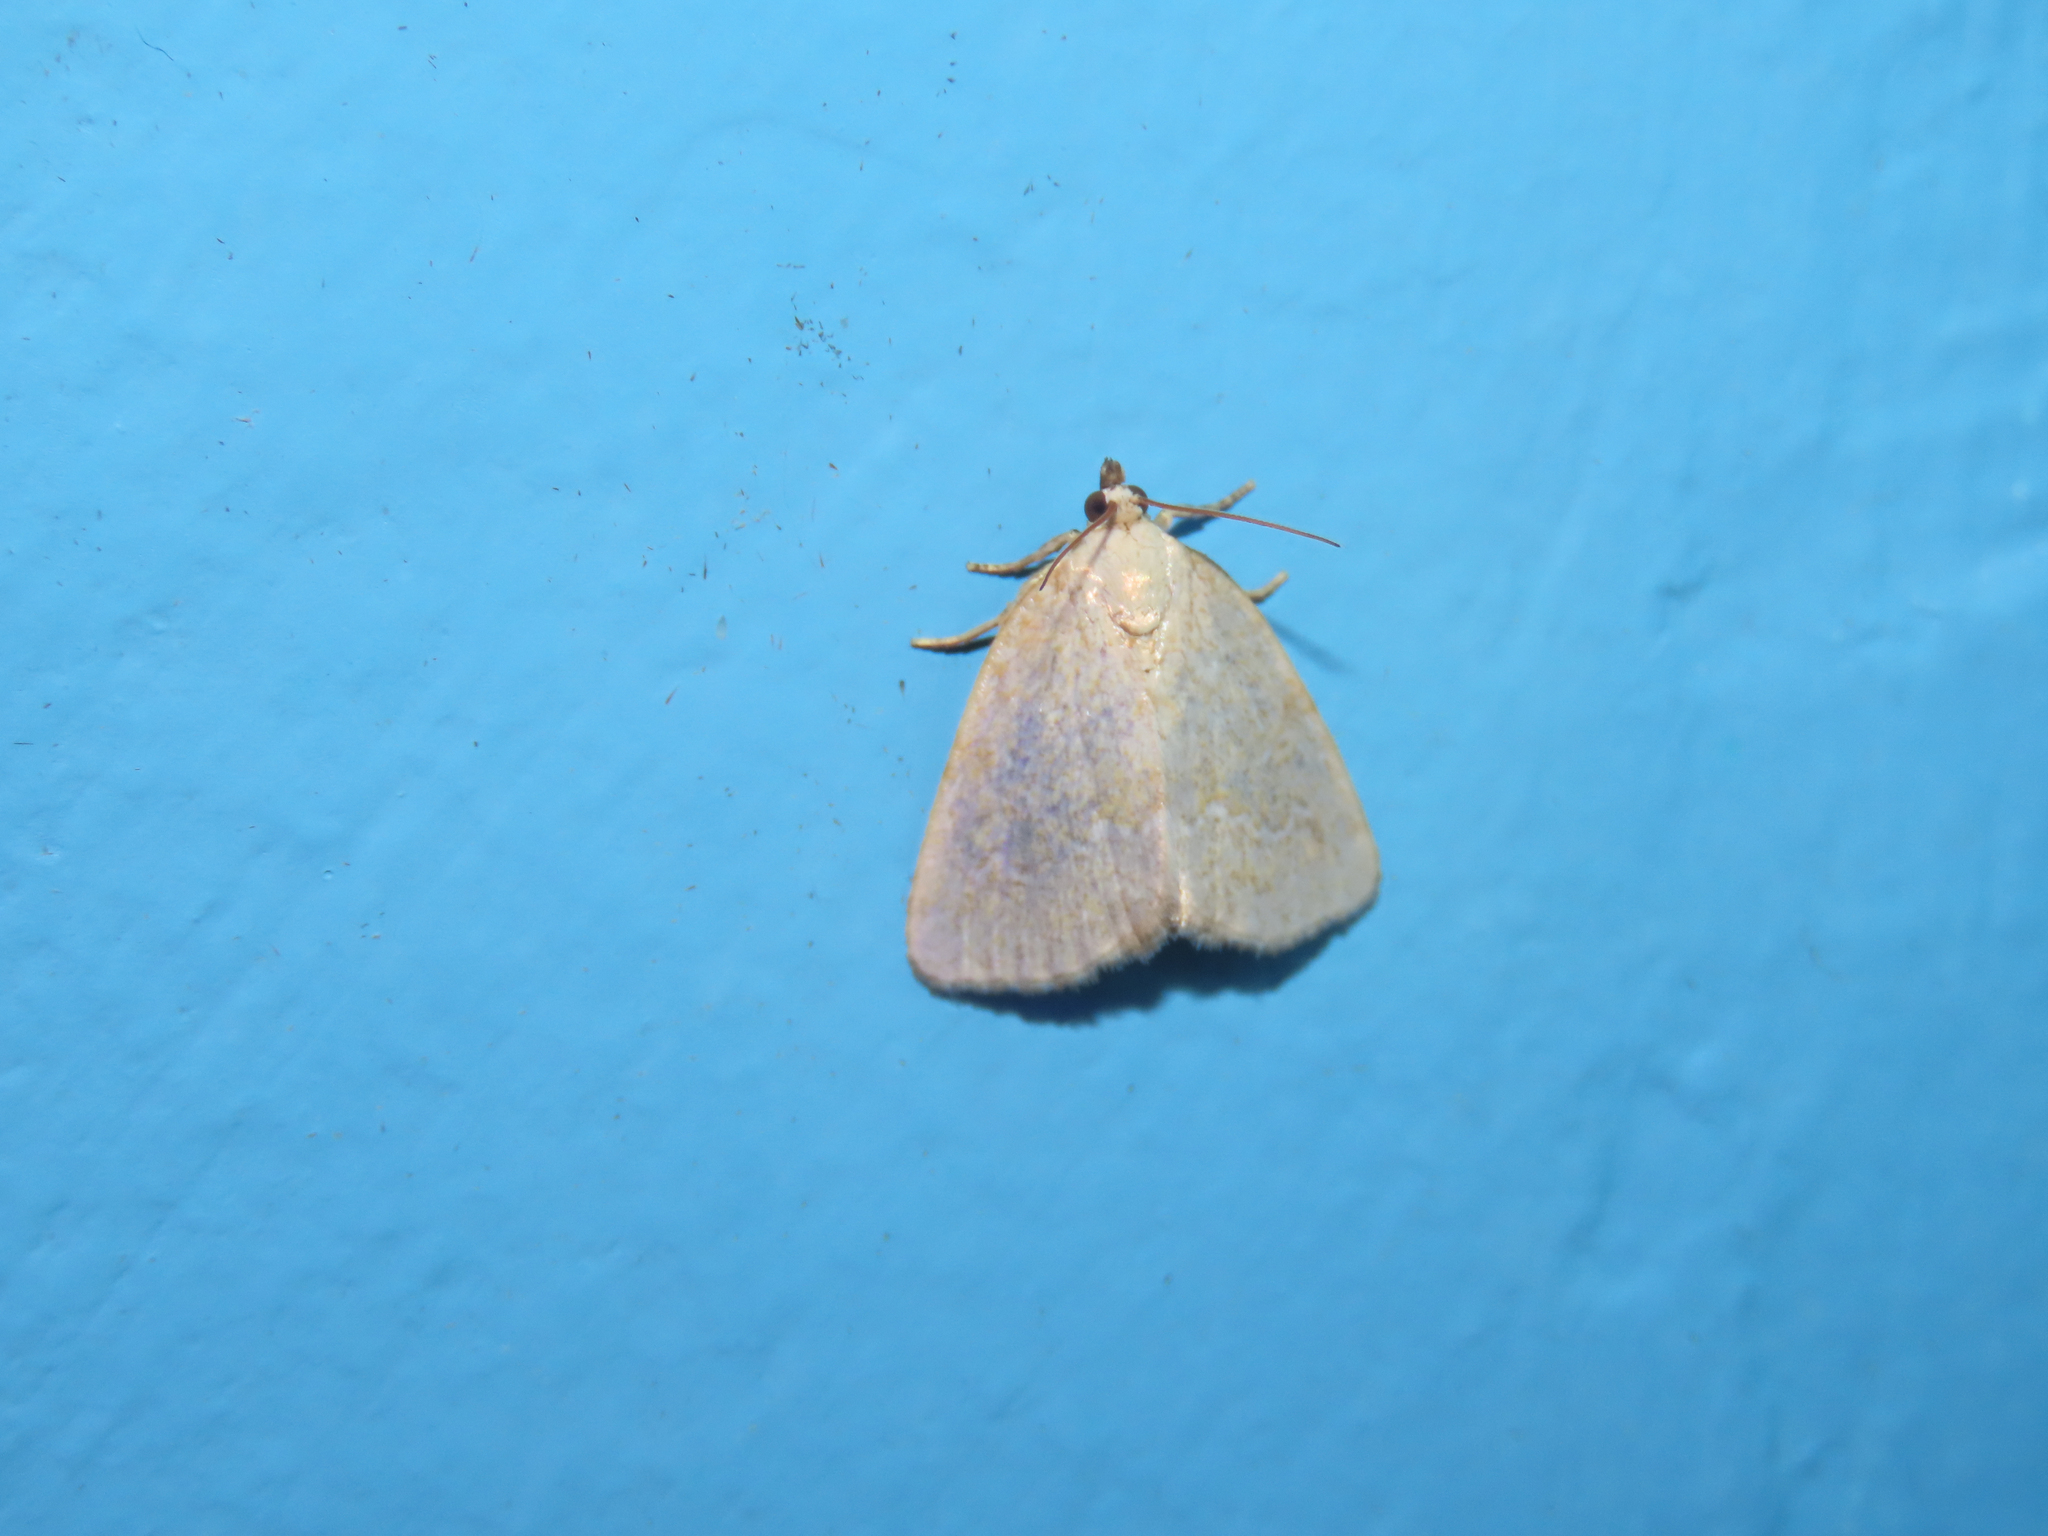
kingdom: Animalia
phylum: Arthropoda
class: Insecta
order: Lepidoptera
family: Noctuidae
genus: Protodeltote
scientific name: Protodeltote albidula
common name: Pale glyph
